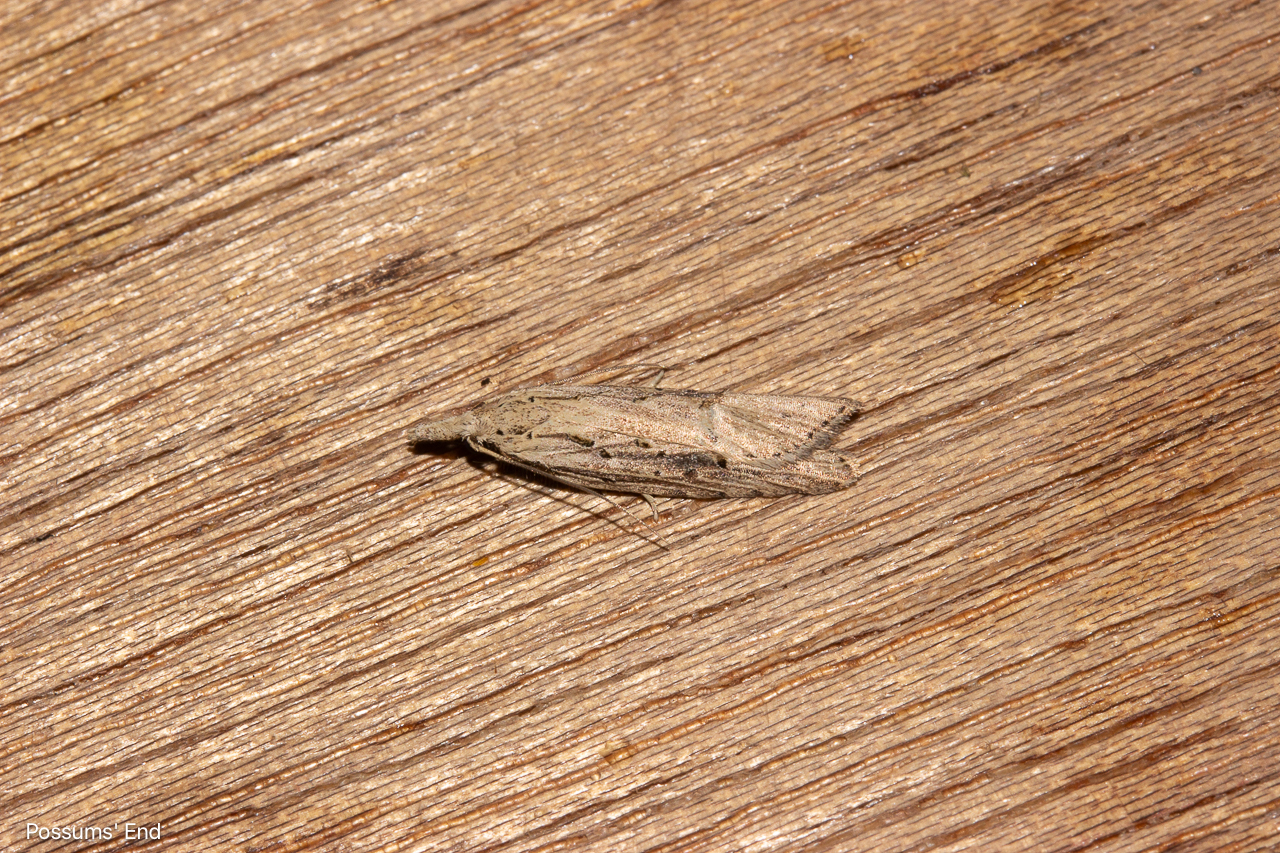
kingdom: Animalia
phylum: Arthropoda
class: Insecta
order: Lepidoptera
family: Carposinidae
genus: Carposina
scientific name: Carposina Heterocrossa exochana
